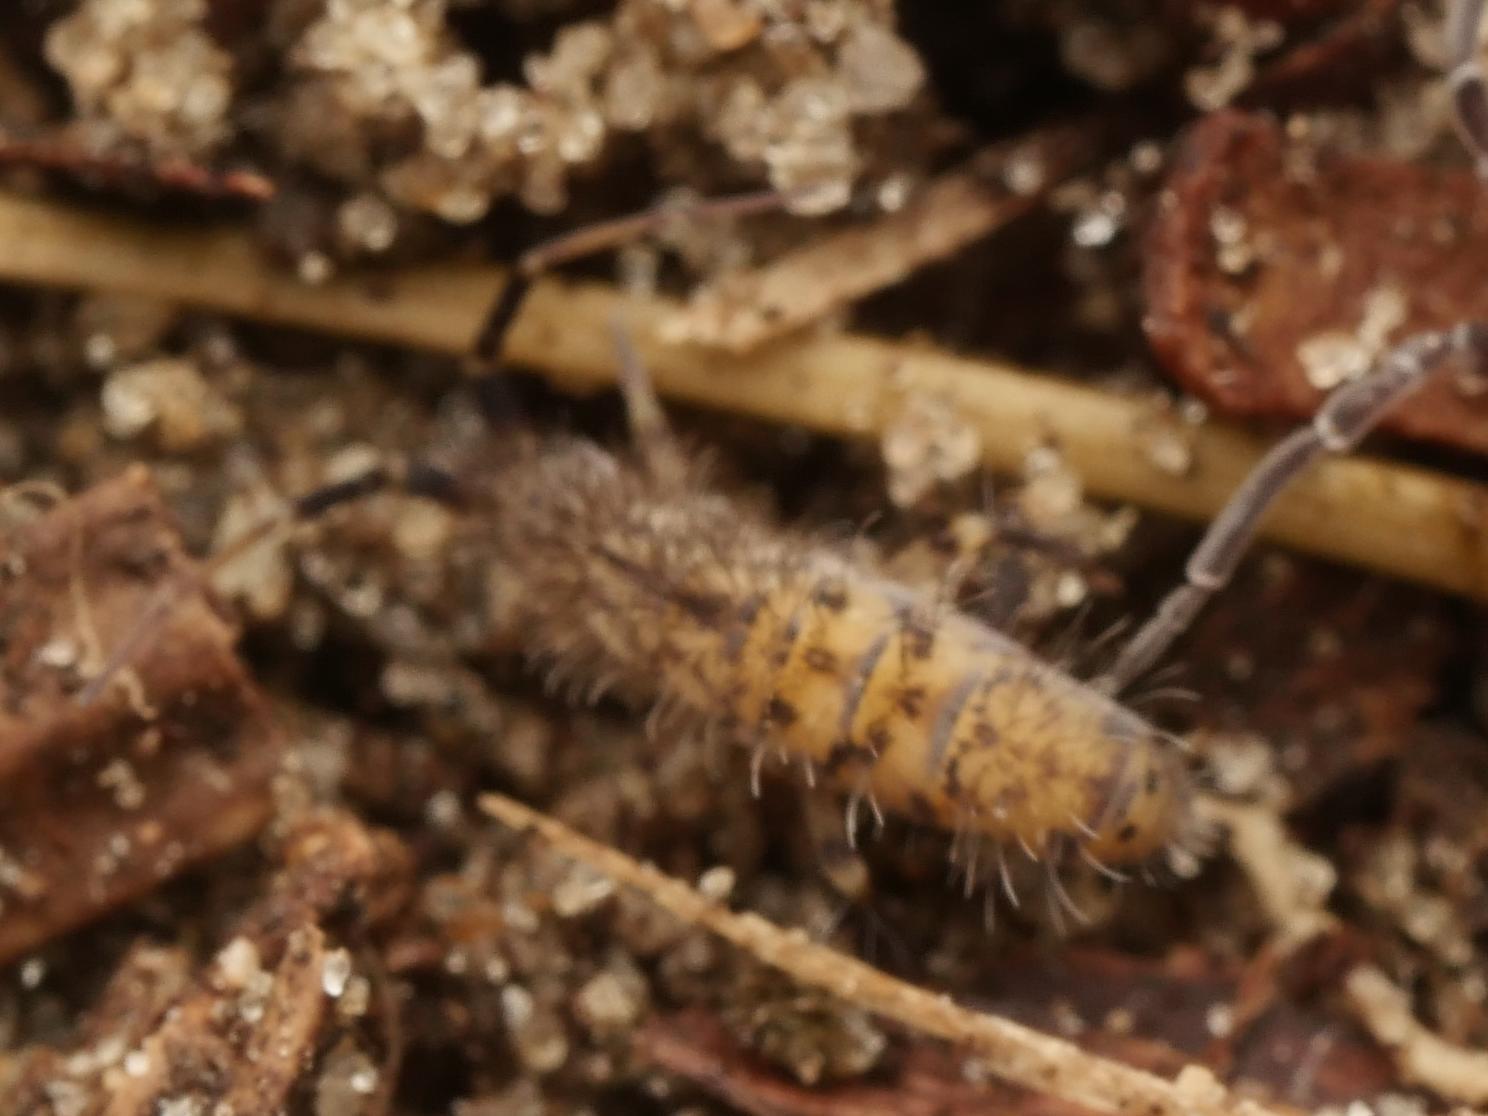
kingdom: Animalia
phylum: Arthropoda
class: Collembola
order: Entomobryomorpha
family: Orchesellidae
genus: Orchesella
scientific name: Orchesella villosa
